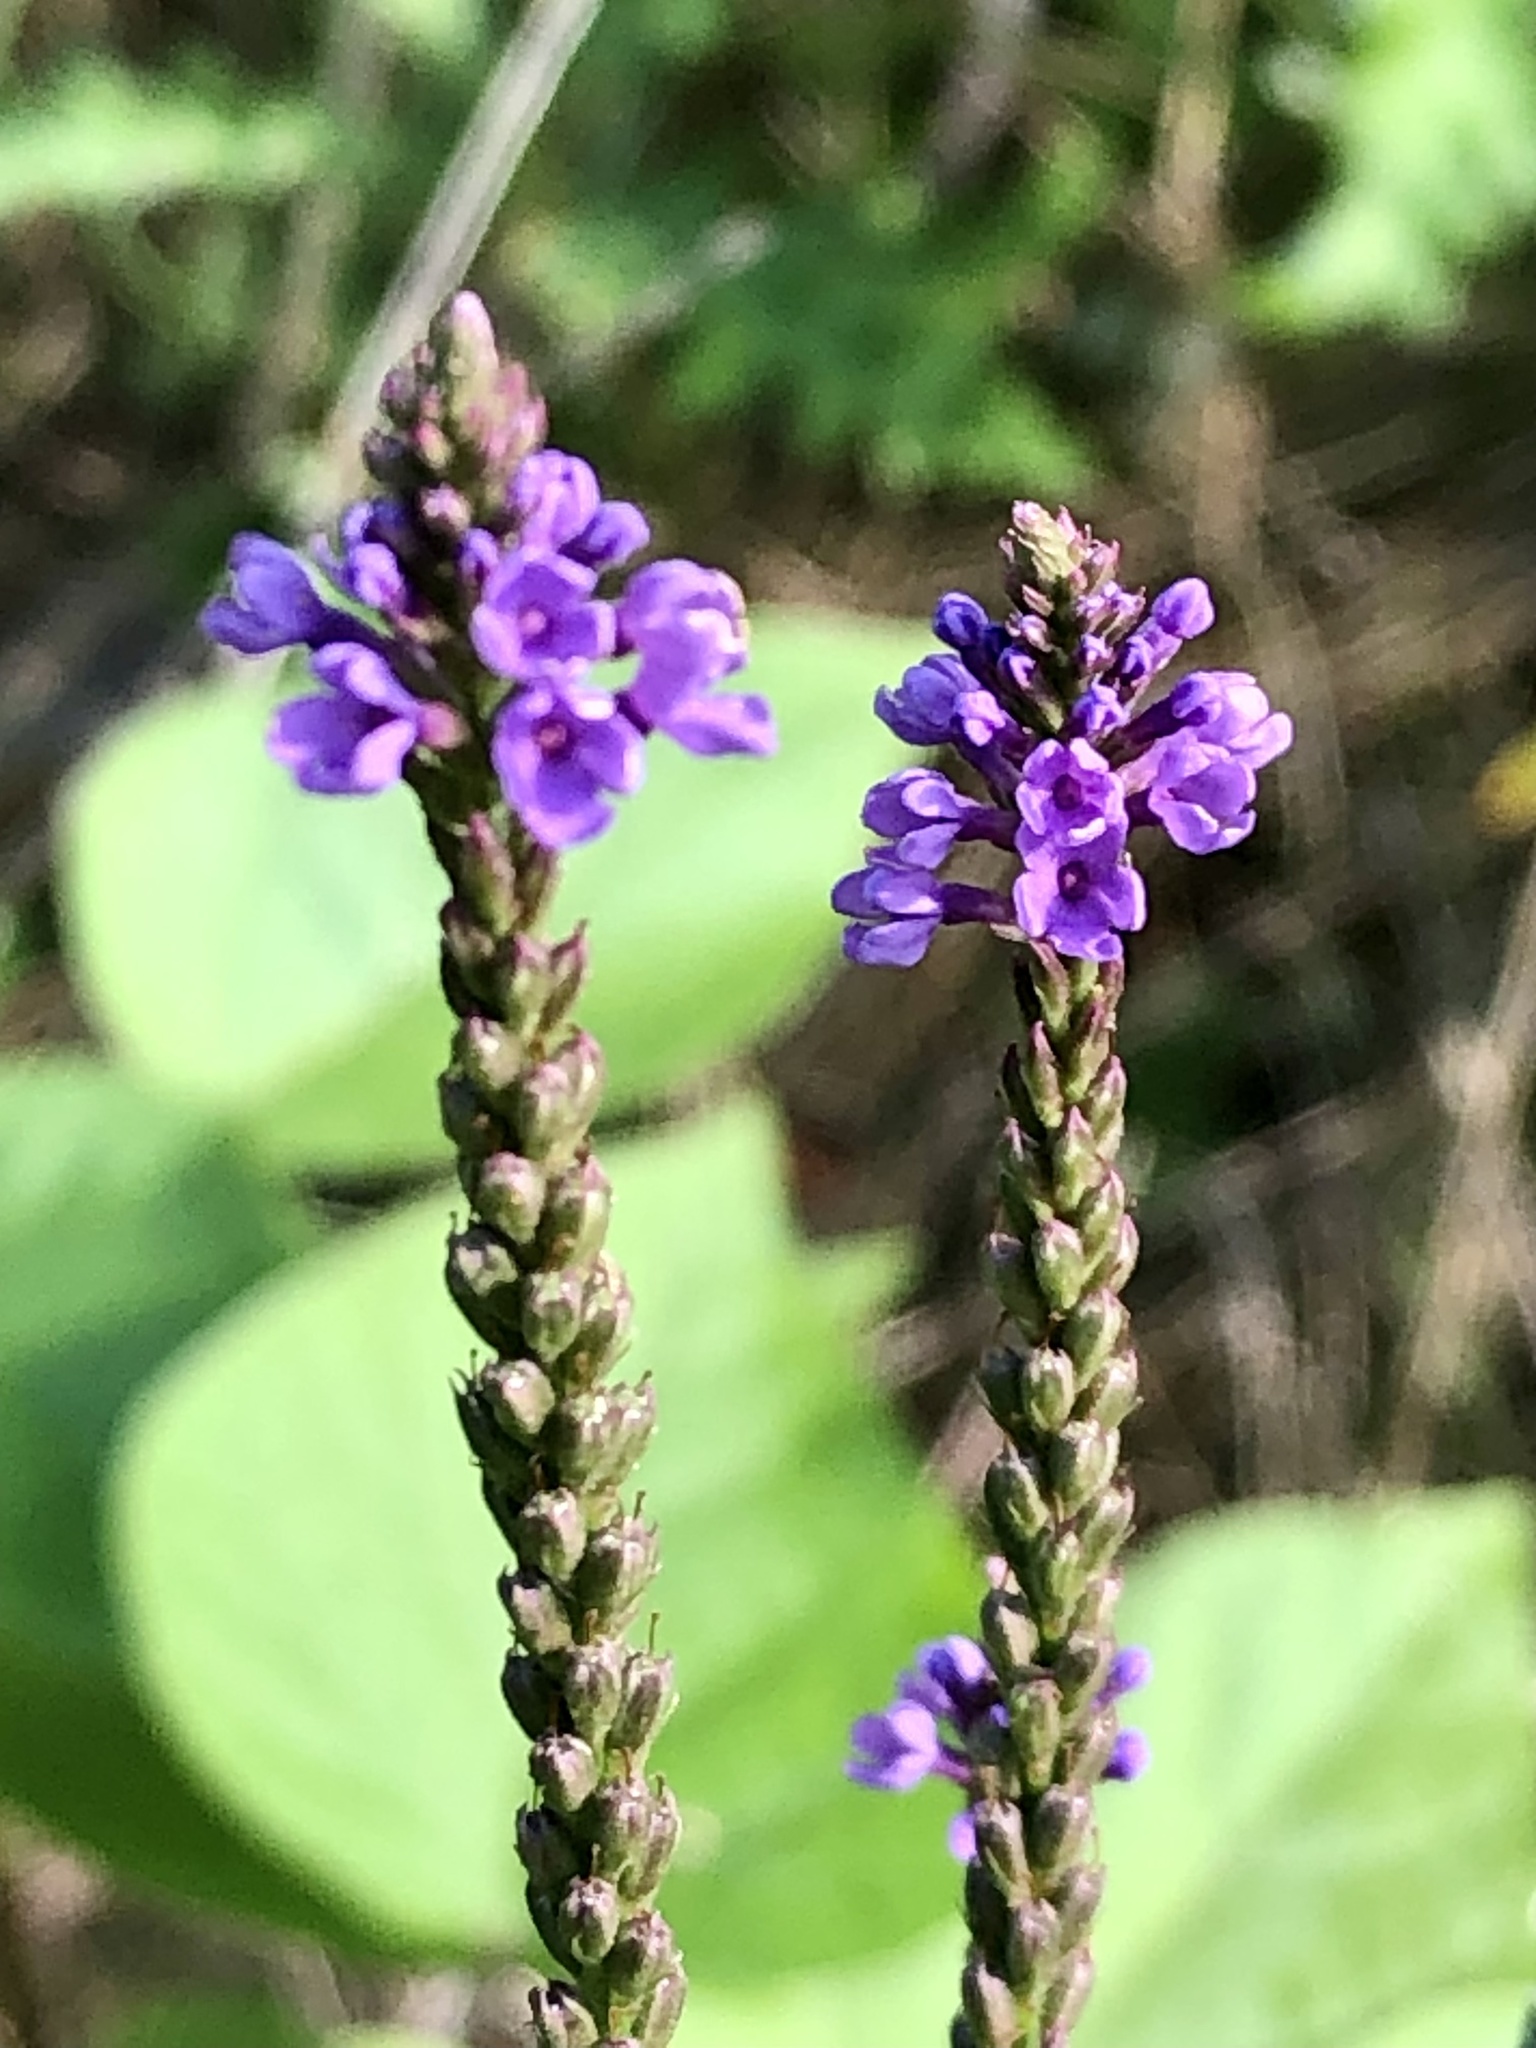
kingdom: Plantae
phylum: Tracheophyta
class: Magnoliopsida
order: Lamiales
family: Verbenaceae
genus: Verbena
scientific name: Verbena hastata
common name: American blue vervain
